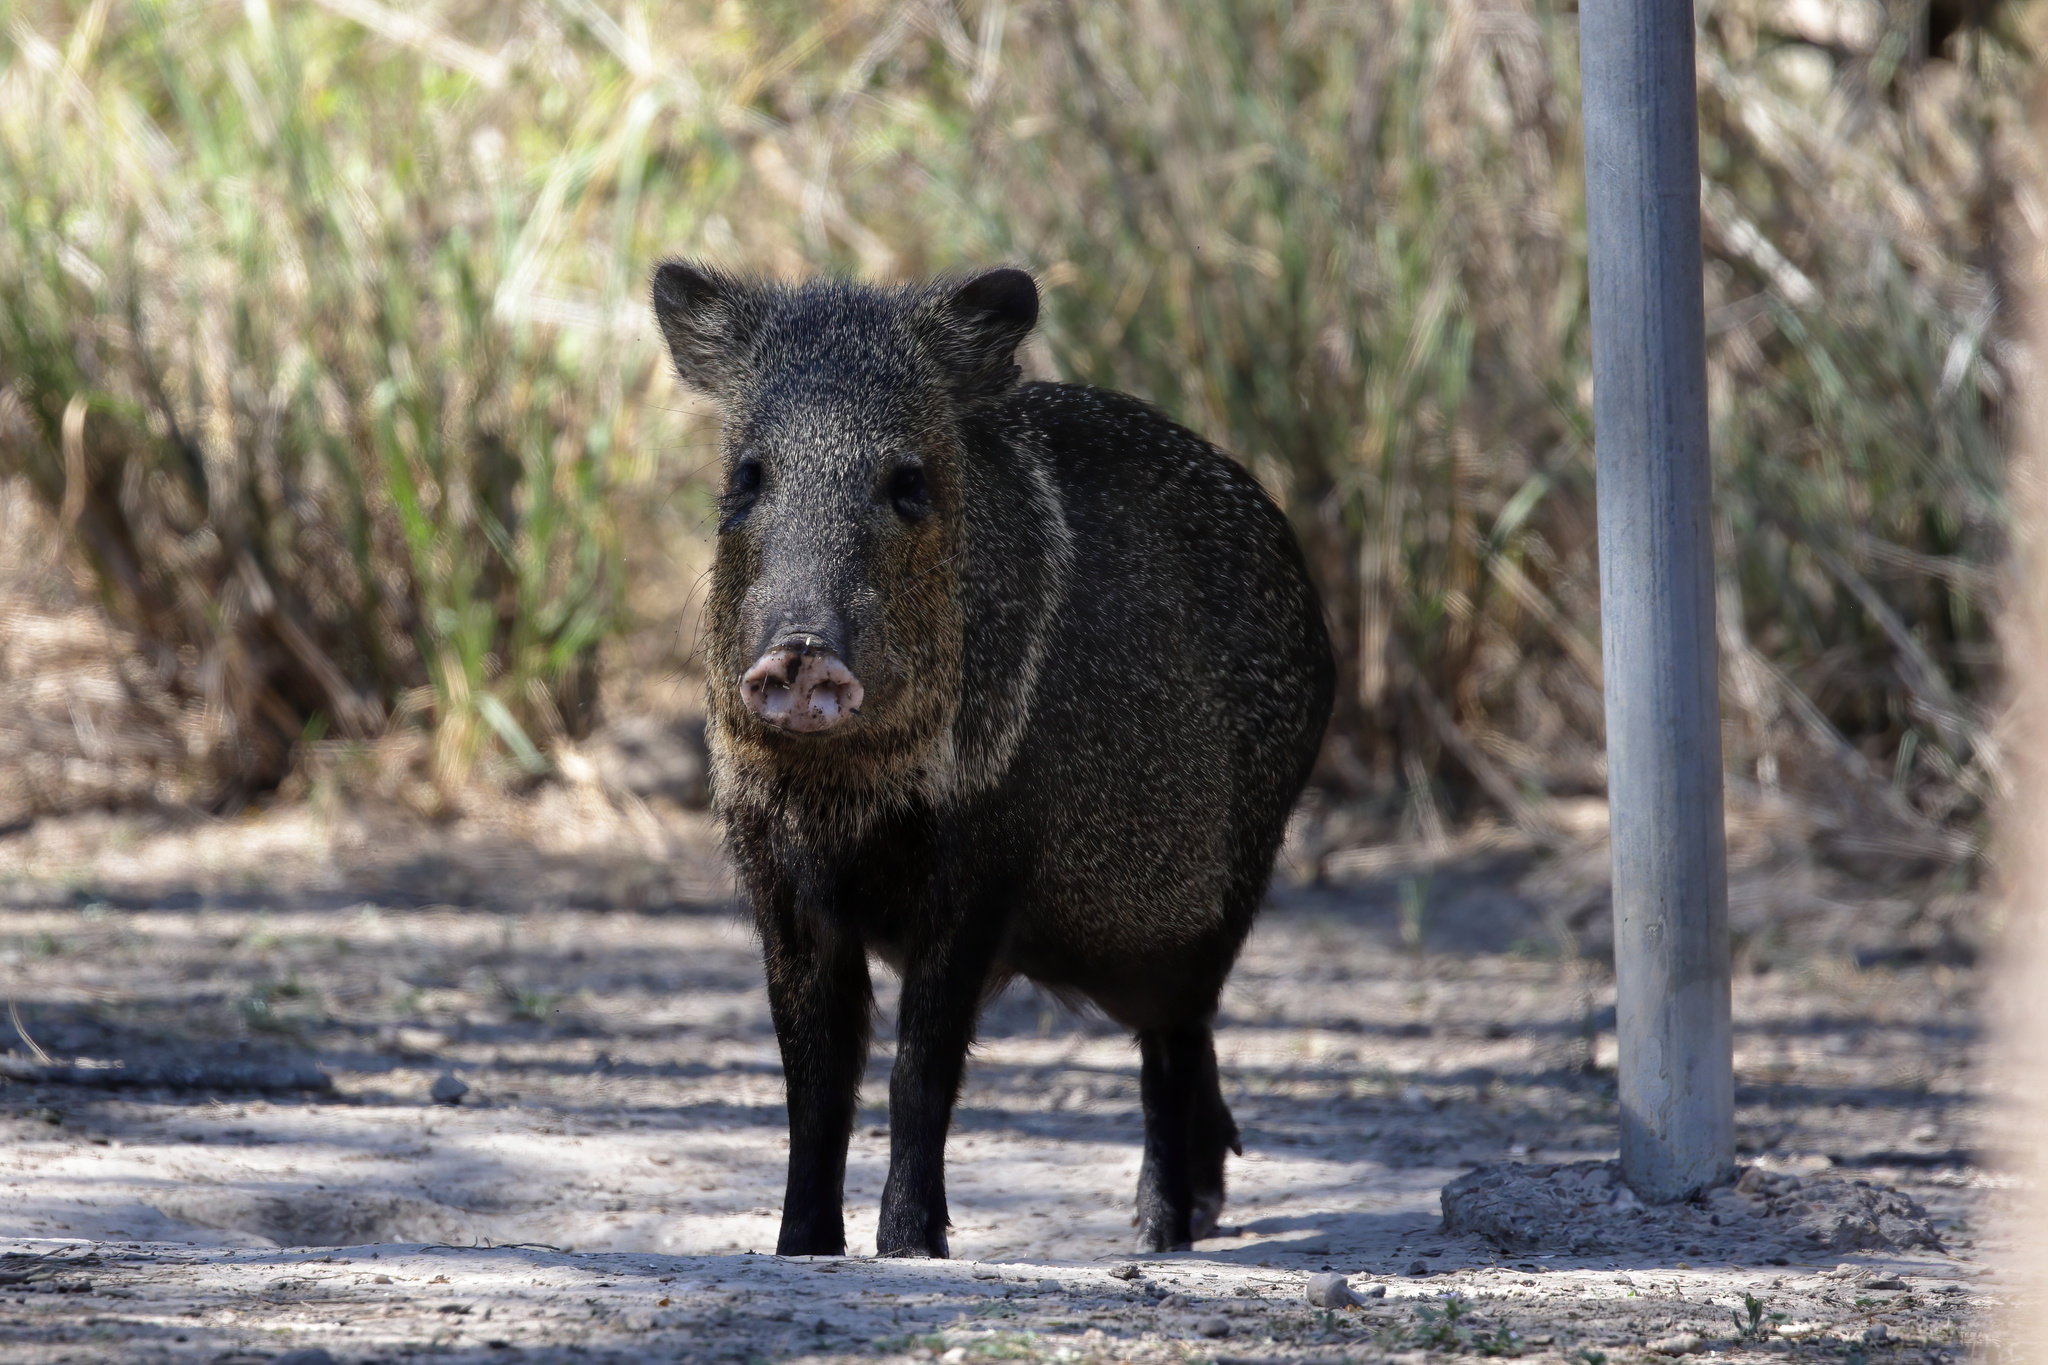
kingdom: Animalia
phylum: Chordata
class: Mammalia
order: Artiodactyla
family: Tayassuidae
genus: Pecari
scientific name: Pecari tajacu
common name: Collared peccary
